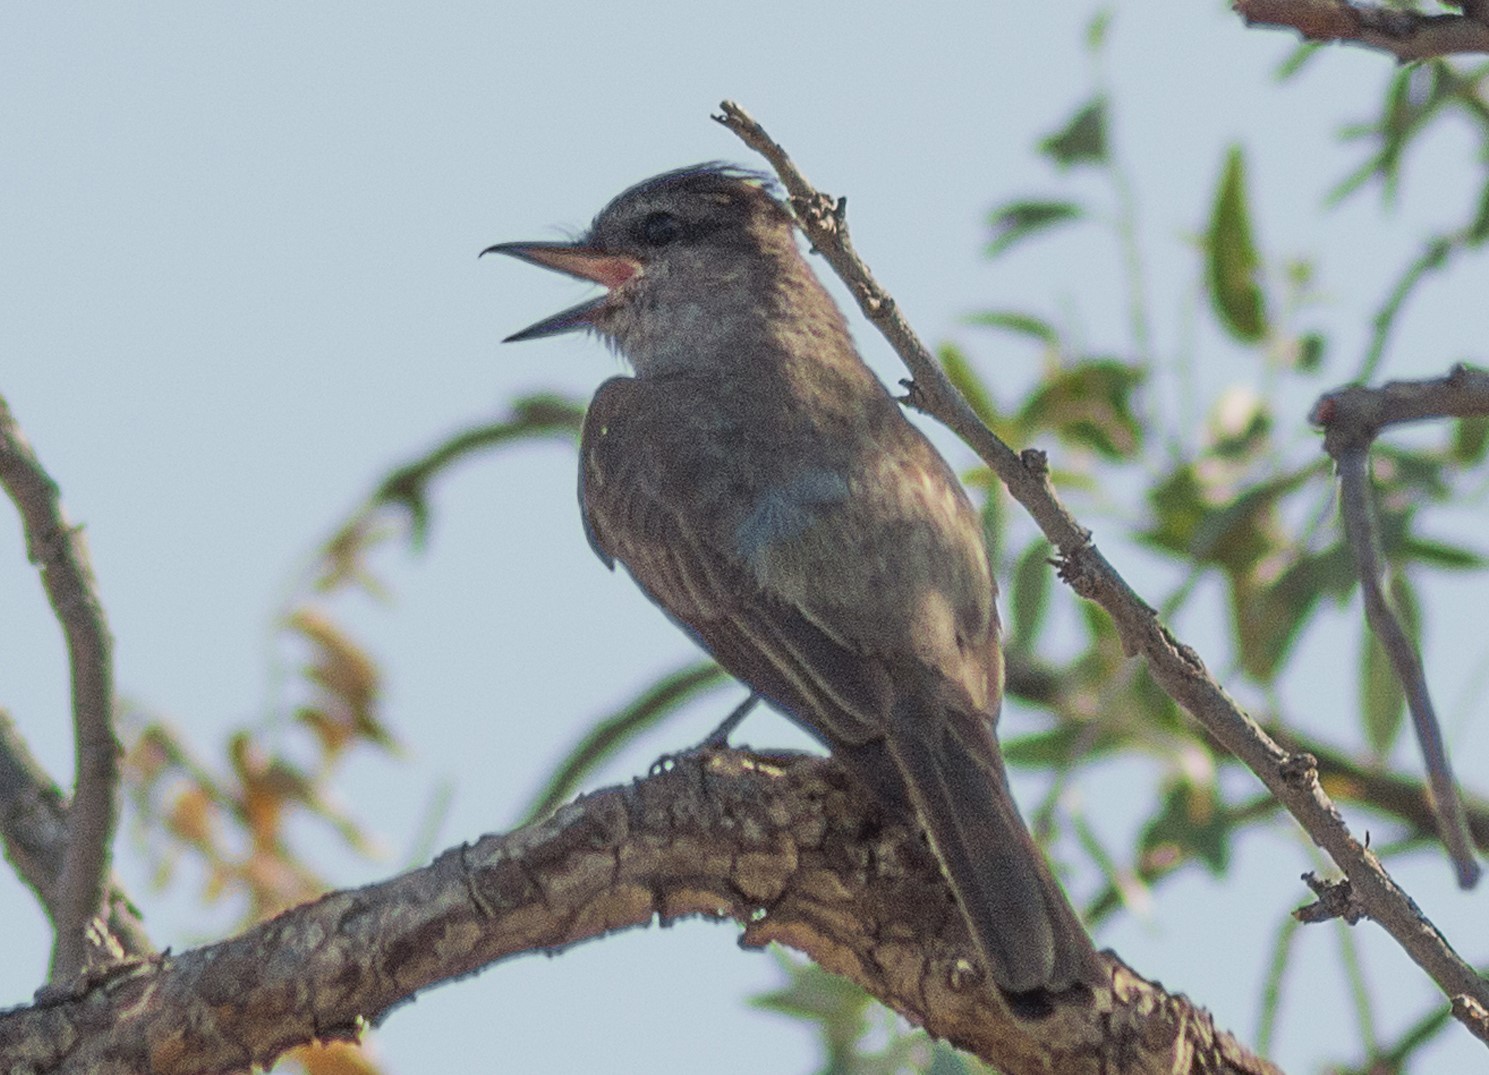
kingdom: Animalia
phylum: Chordata
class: Aves
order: Passeriformes
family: Tyrannidae
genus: Empidonomus
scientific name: Empidonomus aurantioatrocristatus
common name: Crowned slaty flycatcher
